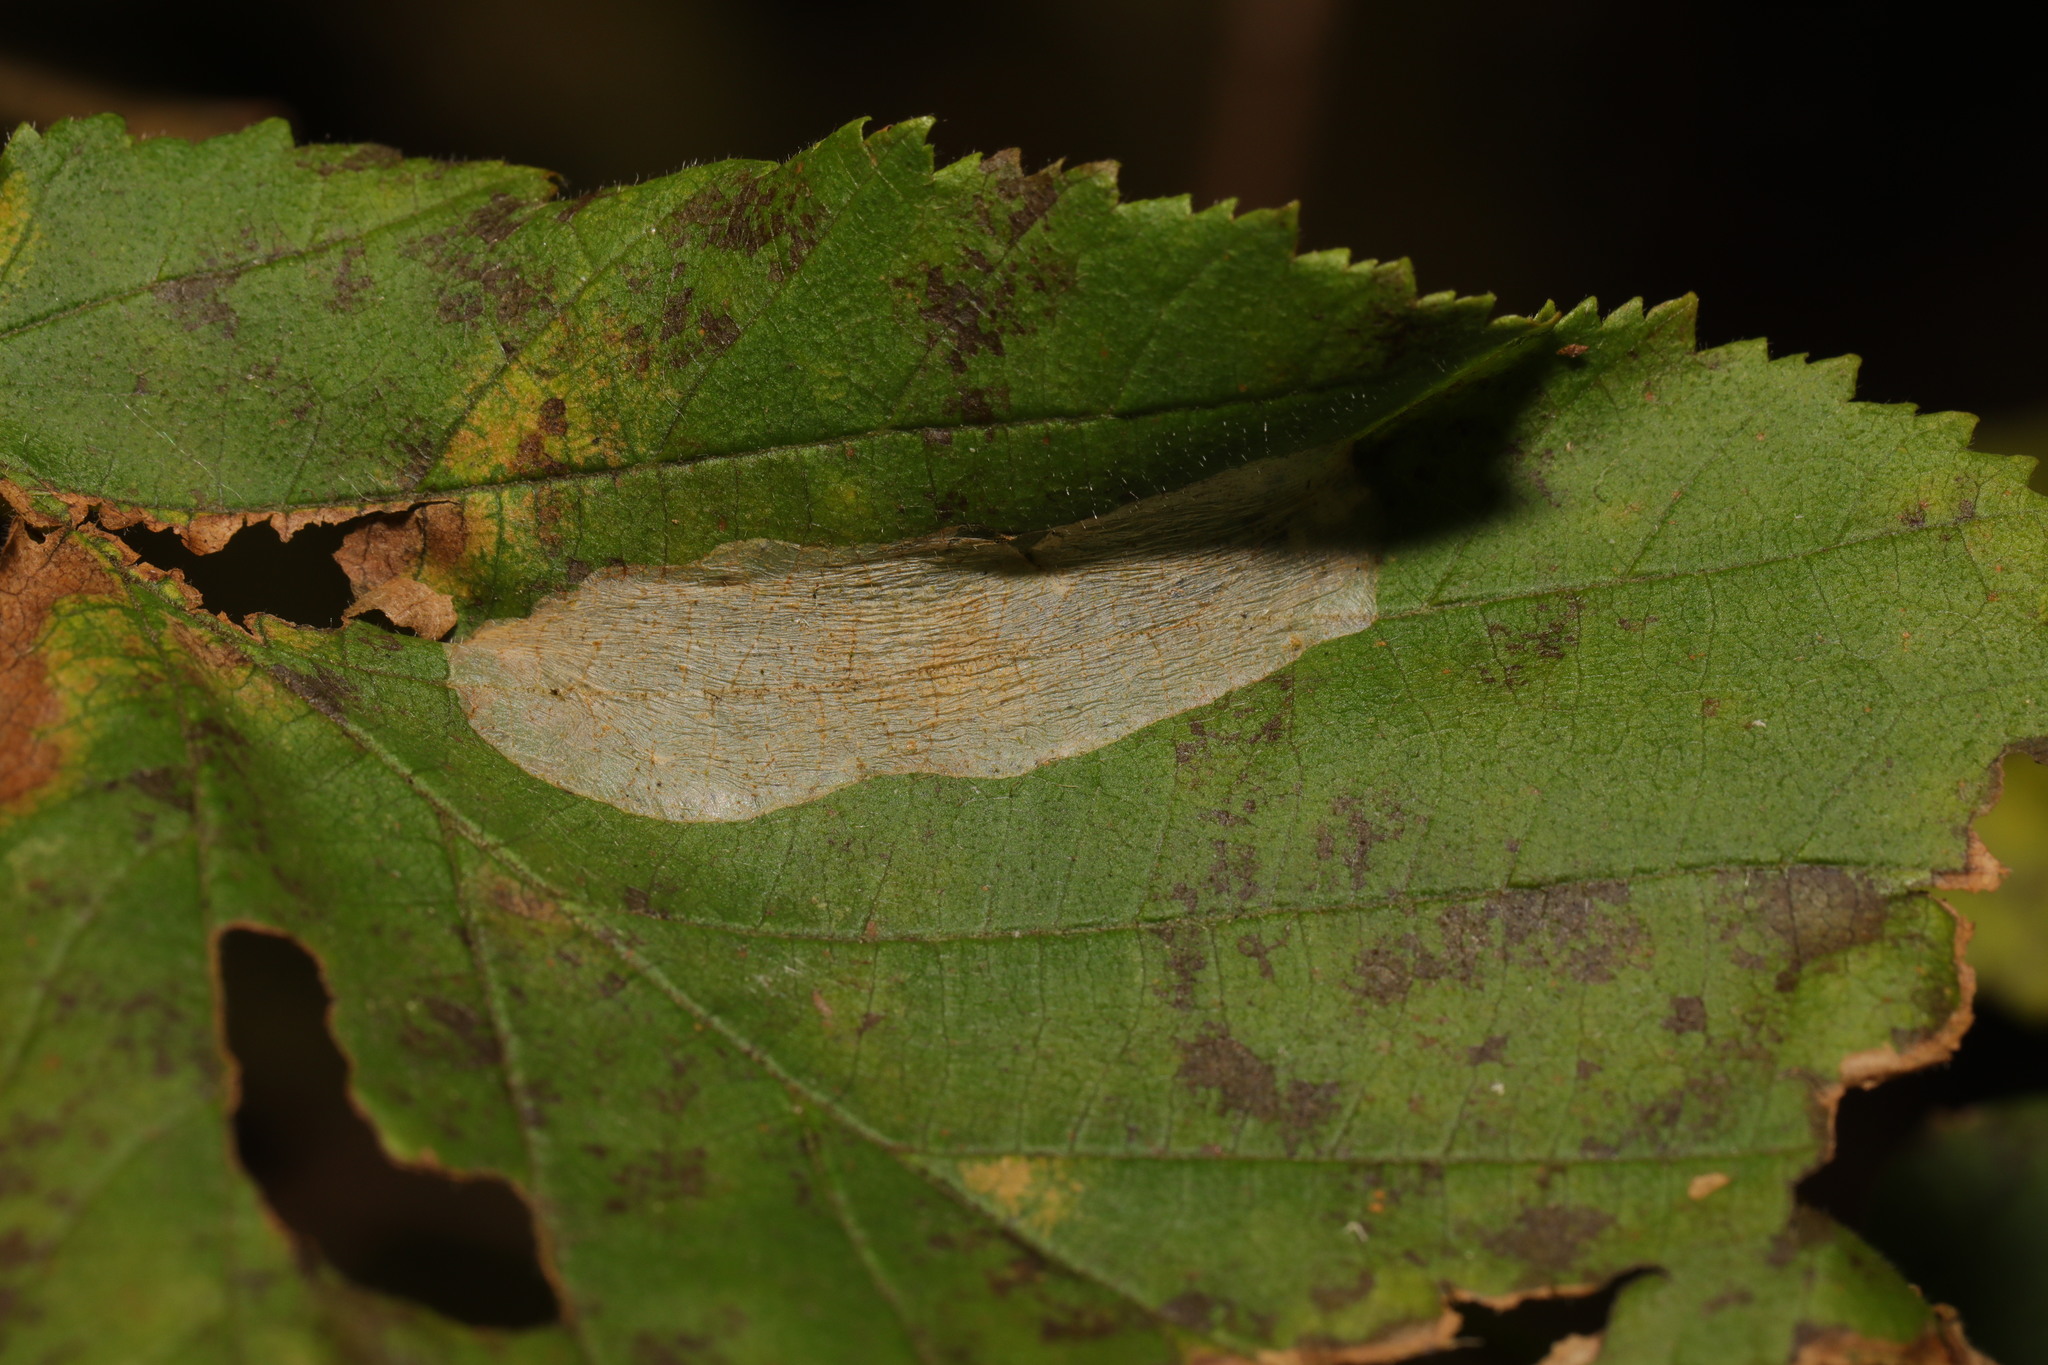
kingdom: Animalia
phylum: Arthropoda
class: Insecta
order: Lepidoptera
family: Gracillariidae
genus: Phyllonorycter
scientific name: Phyllonorycter coryli
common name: Nut-leaf blister moth
